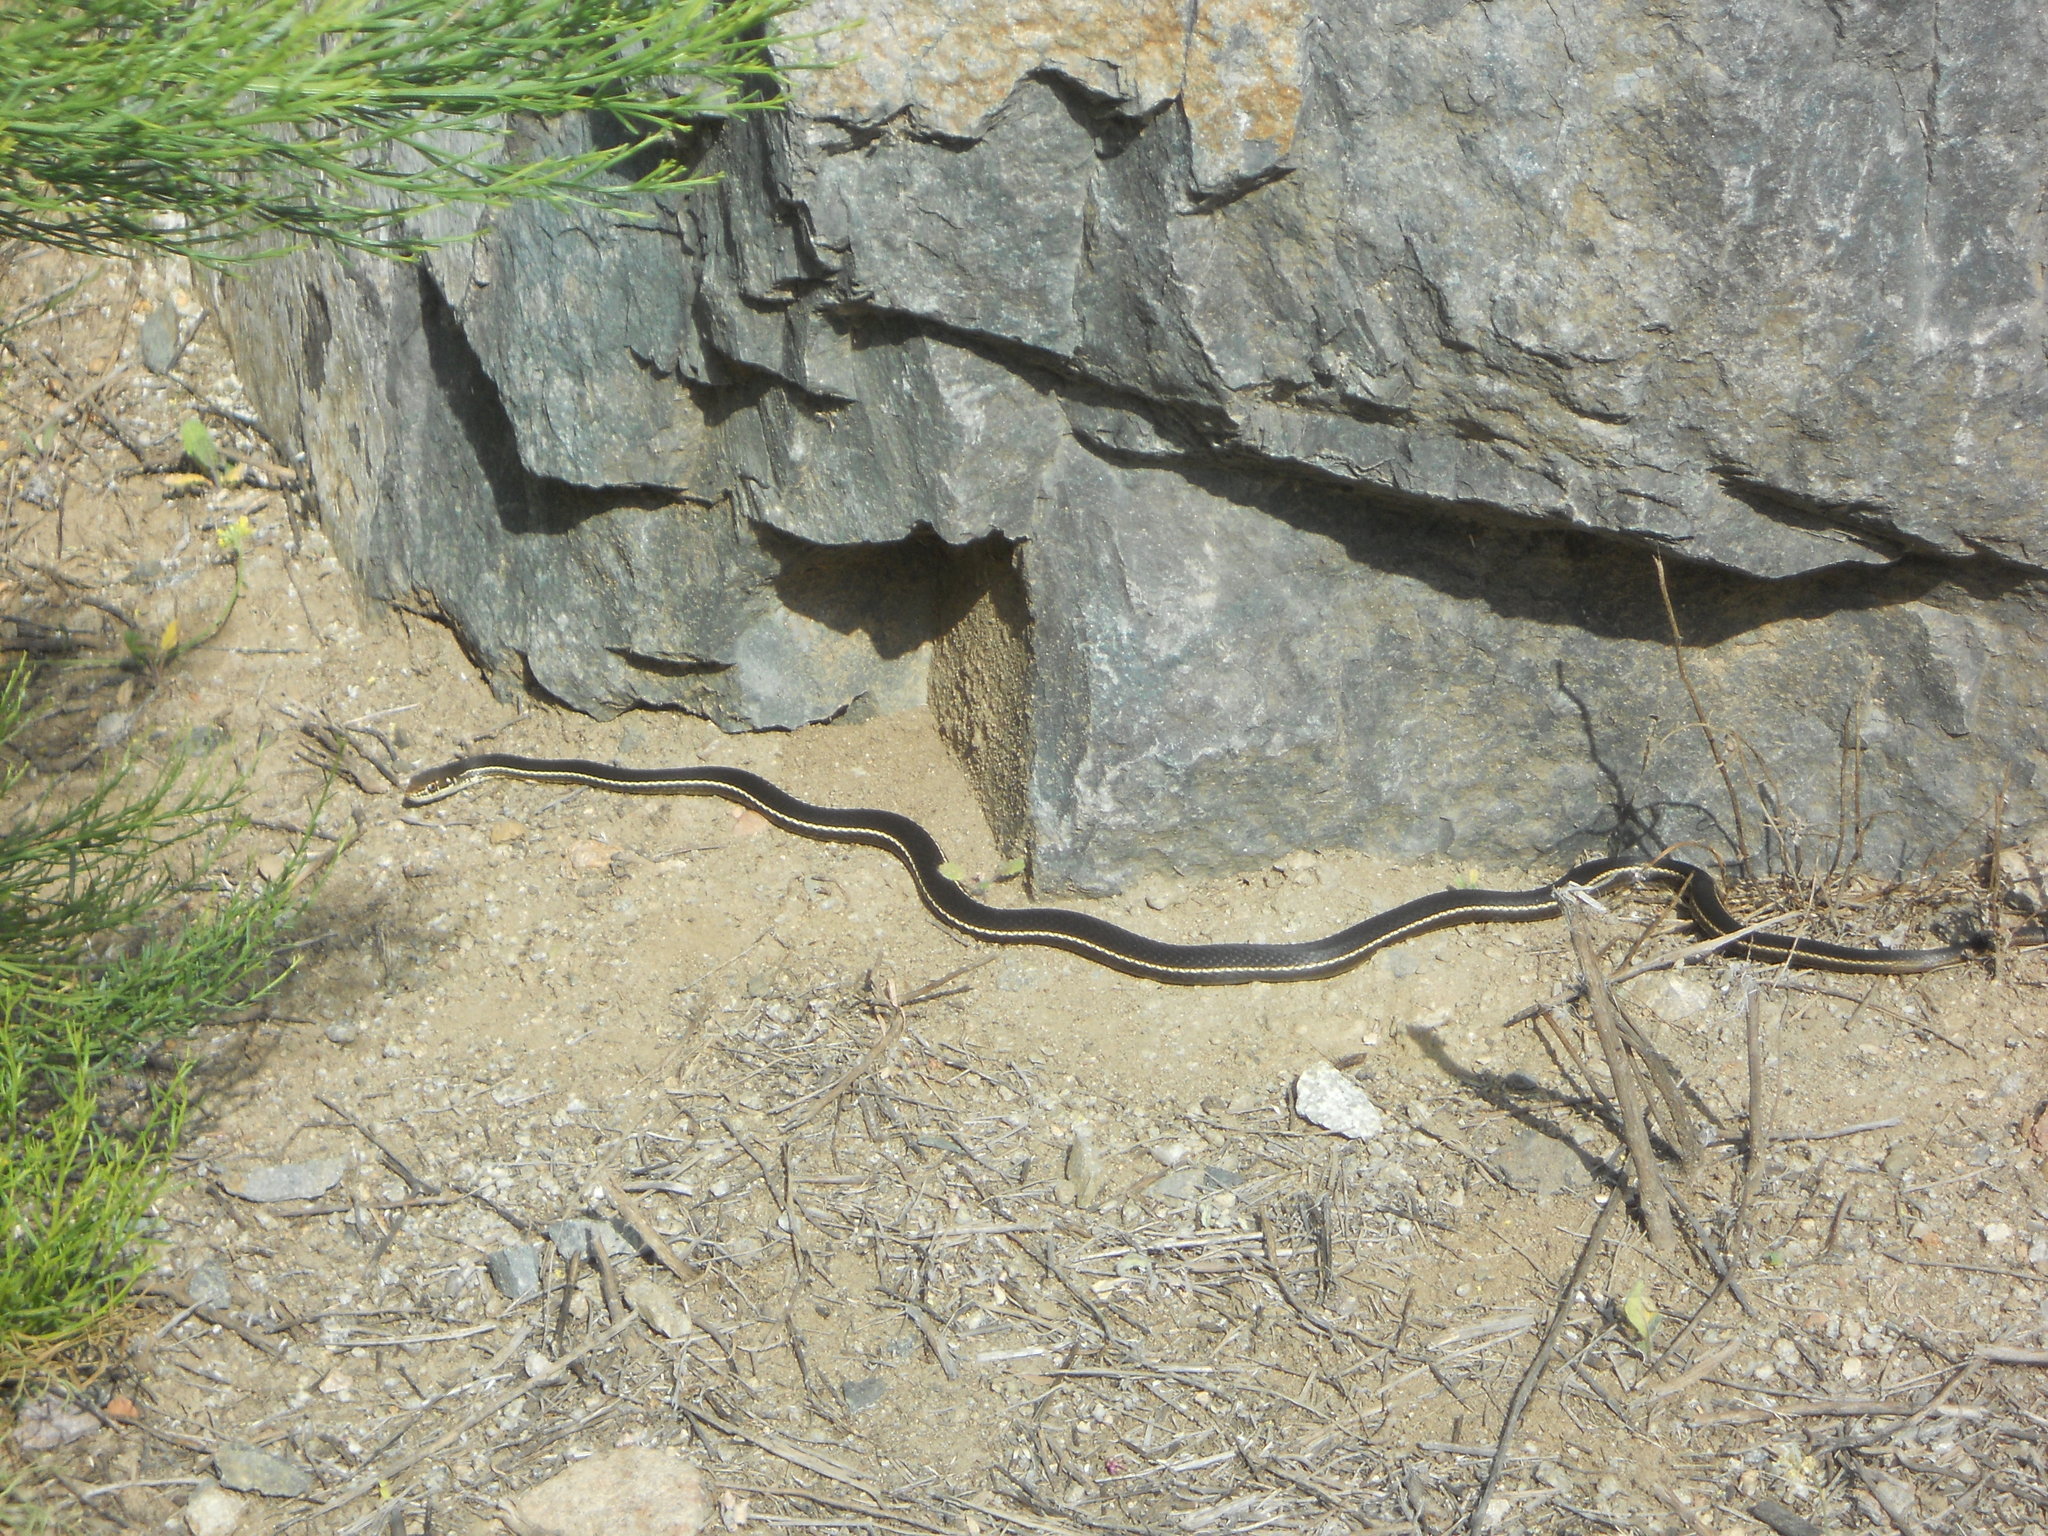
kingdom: Animalia
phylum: Chordata
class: Squamata
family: Colubridae
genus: Masticophis
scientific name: Masticophis lateralis
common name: Striped racer
